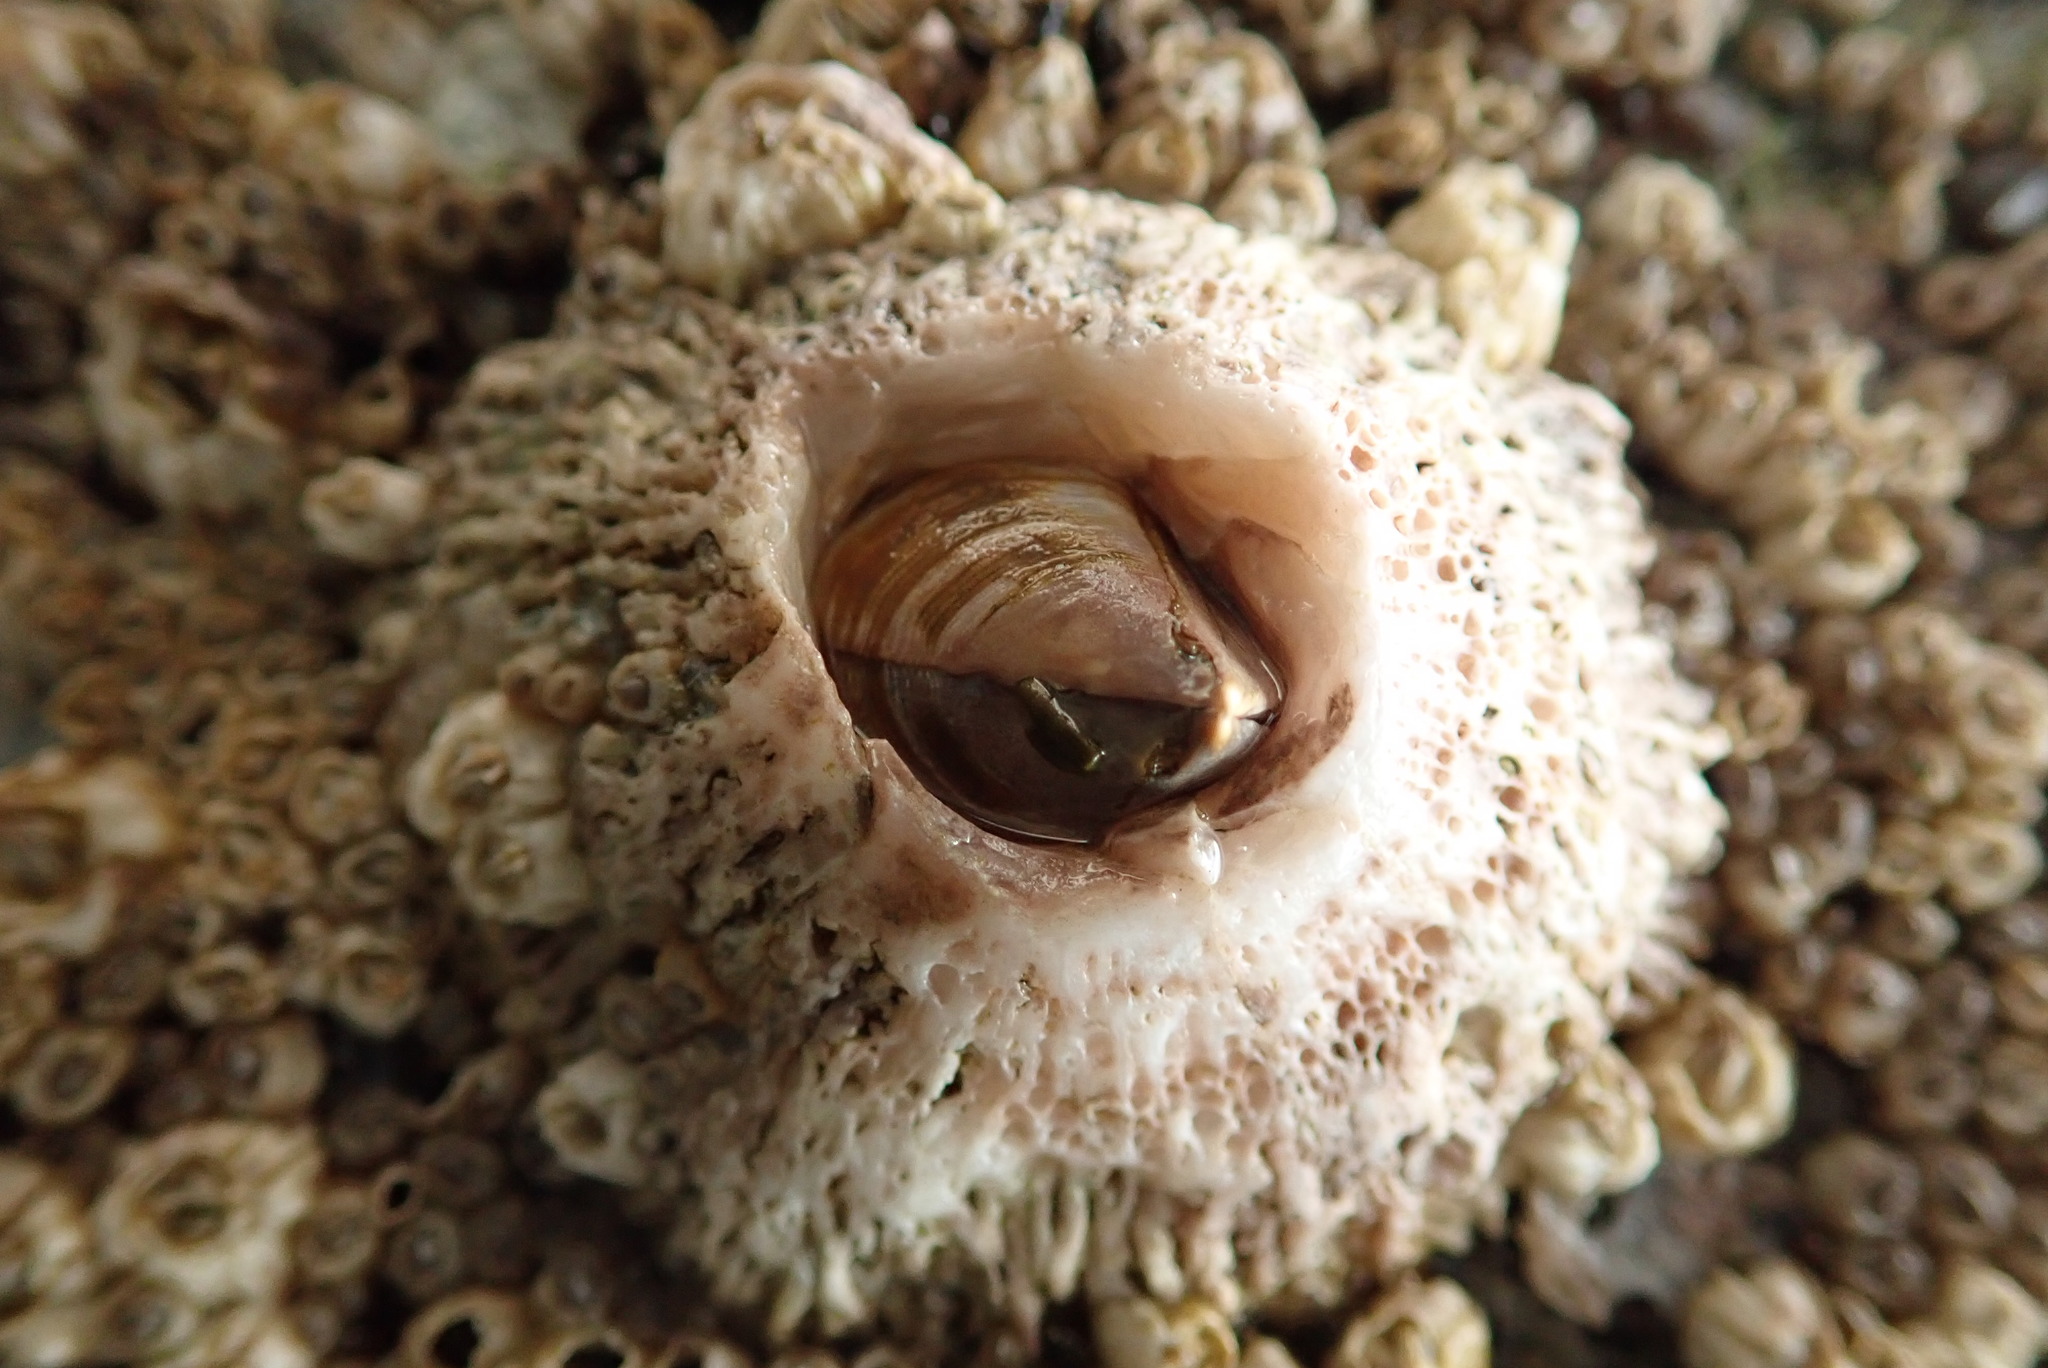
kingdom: Animalia
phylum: Arthropoda
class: Maxillopoda
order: Sessilia
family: Archaeobalanidae
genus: Semibalanus
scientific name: Semibalanus cariosus
